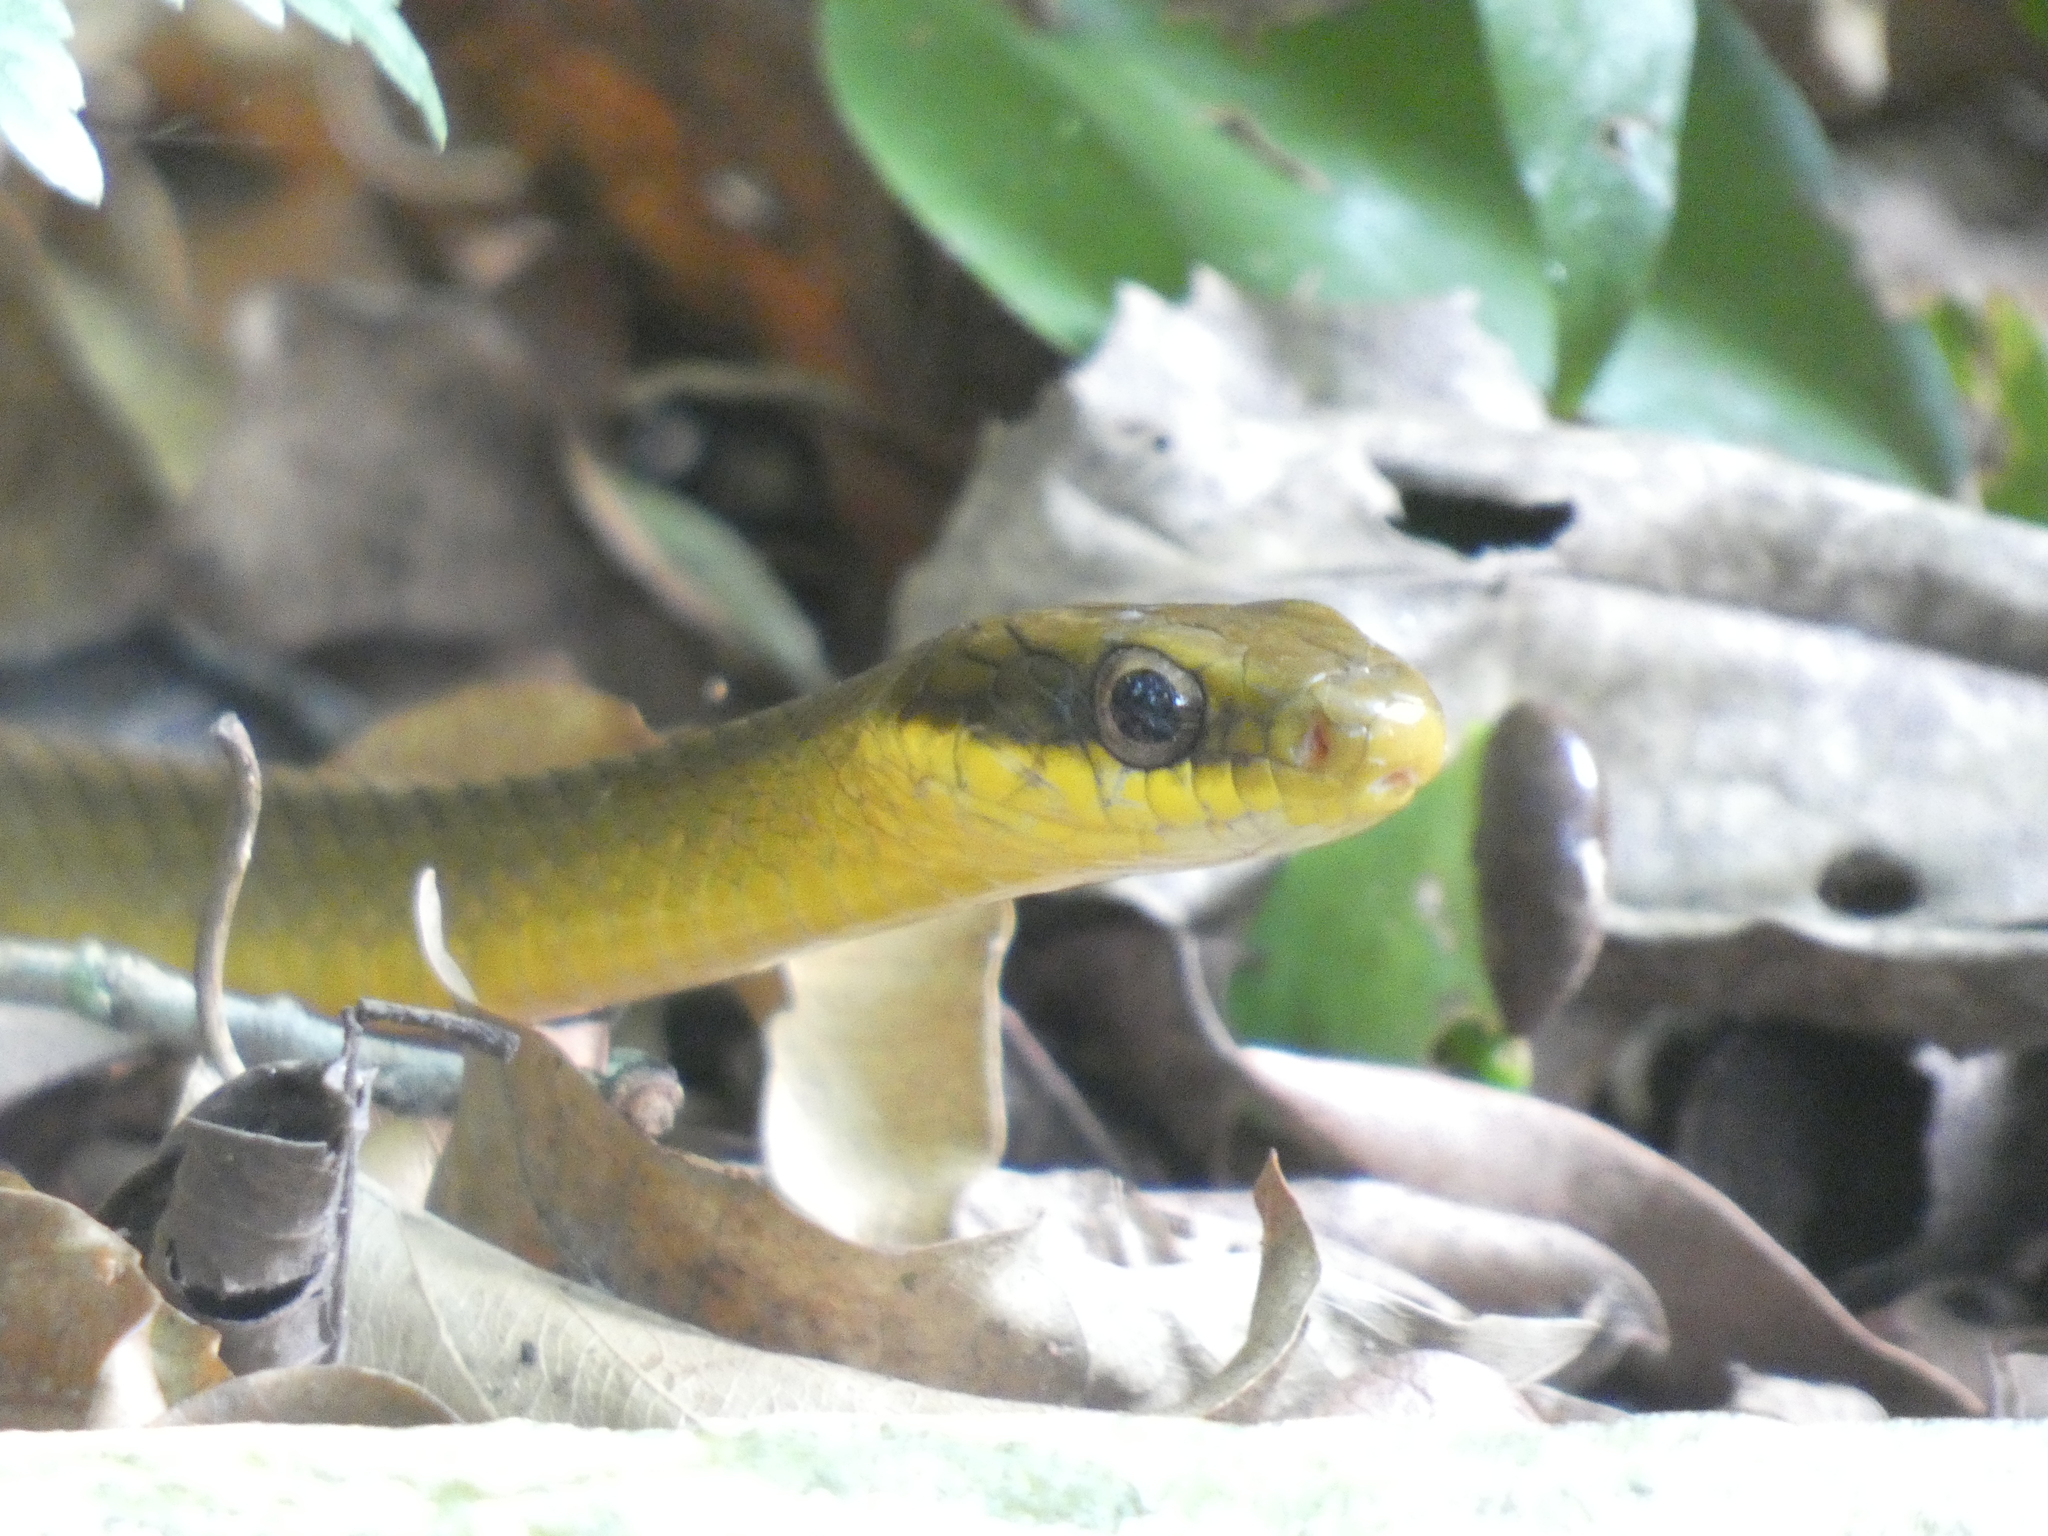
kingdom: Animalia
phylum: Chordata
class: Squamata
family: Colubridae
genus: Drymoluber
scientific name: Drymoluber dichrous
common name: Northern woodland racer
